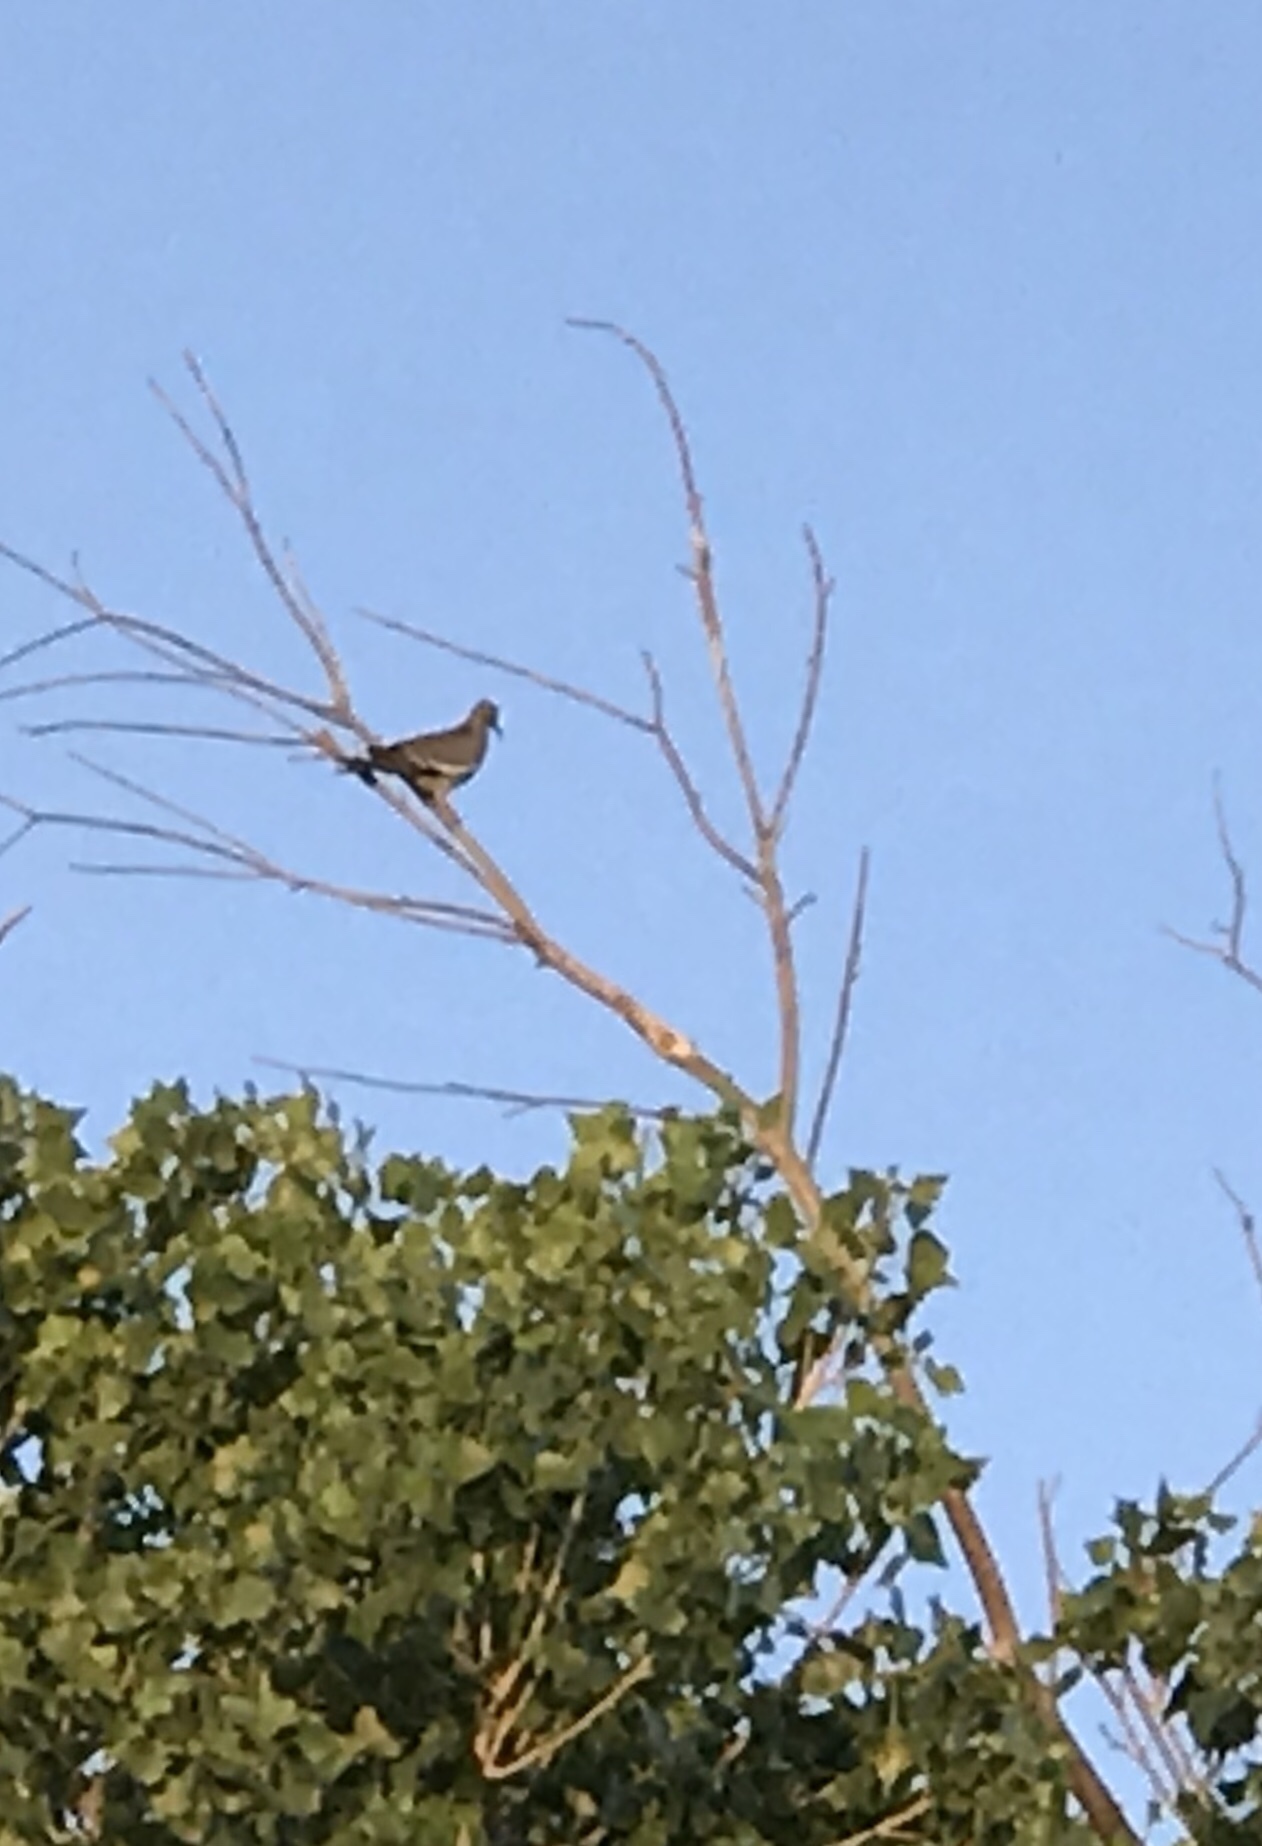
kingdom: Animalia
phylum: Chordata
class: Aves
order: Columbiformes
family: Columbidae
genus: Zenaida
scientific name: Zenaida asiatica
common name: White-winged dove
